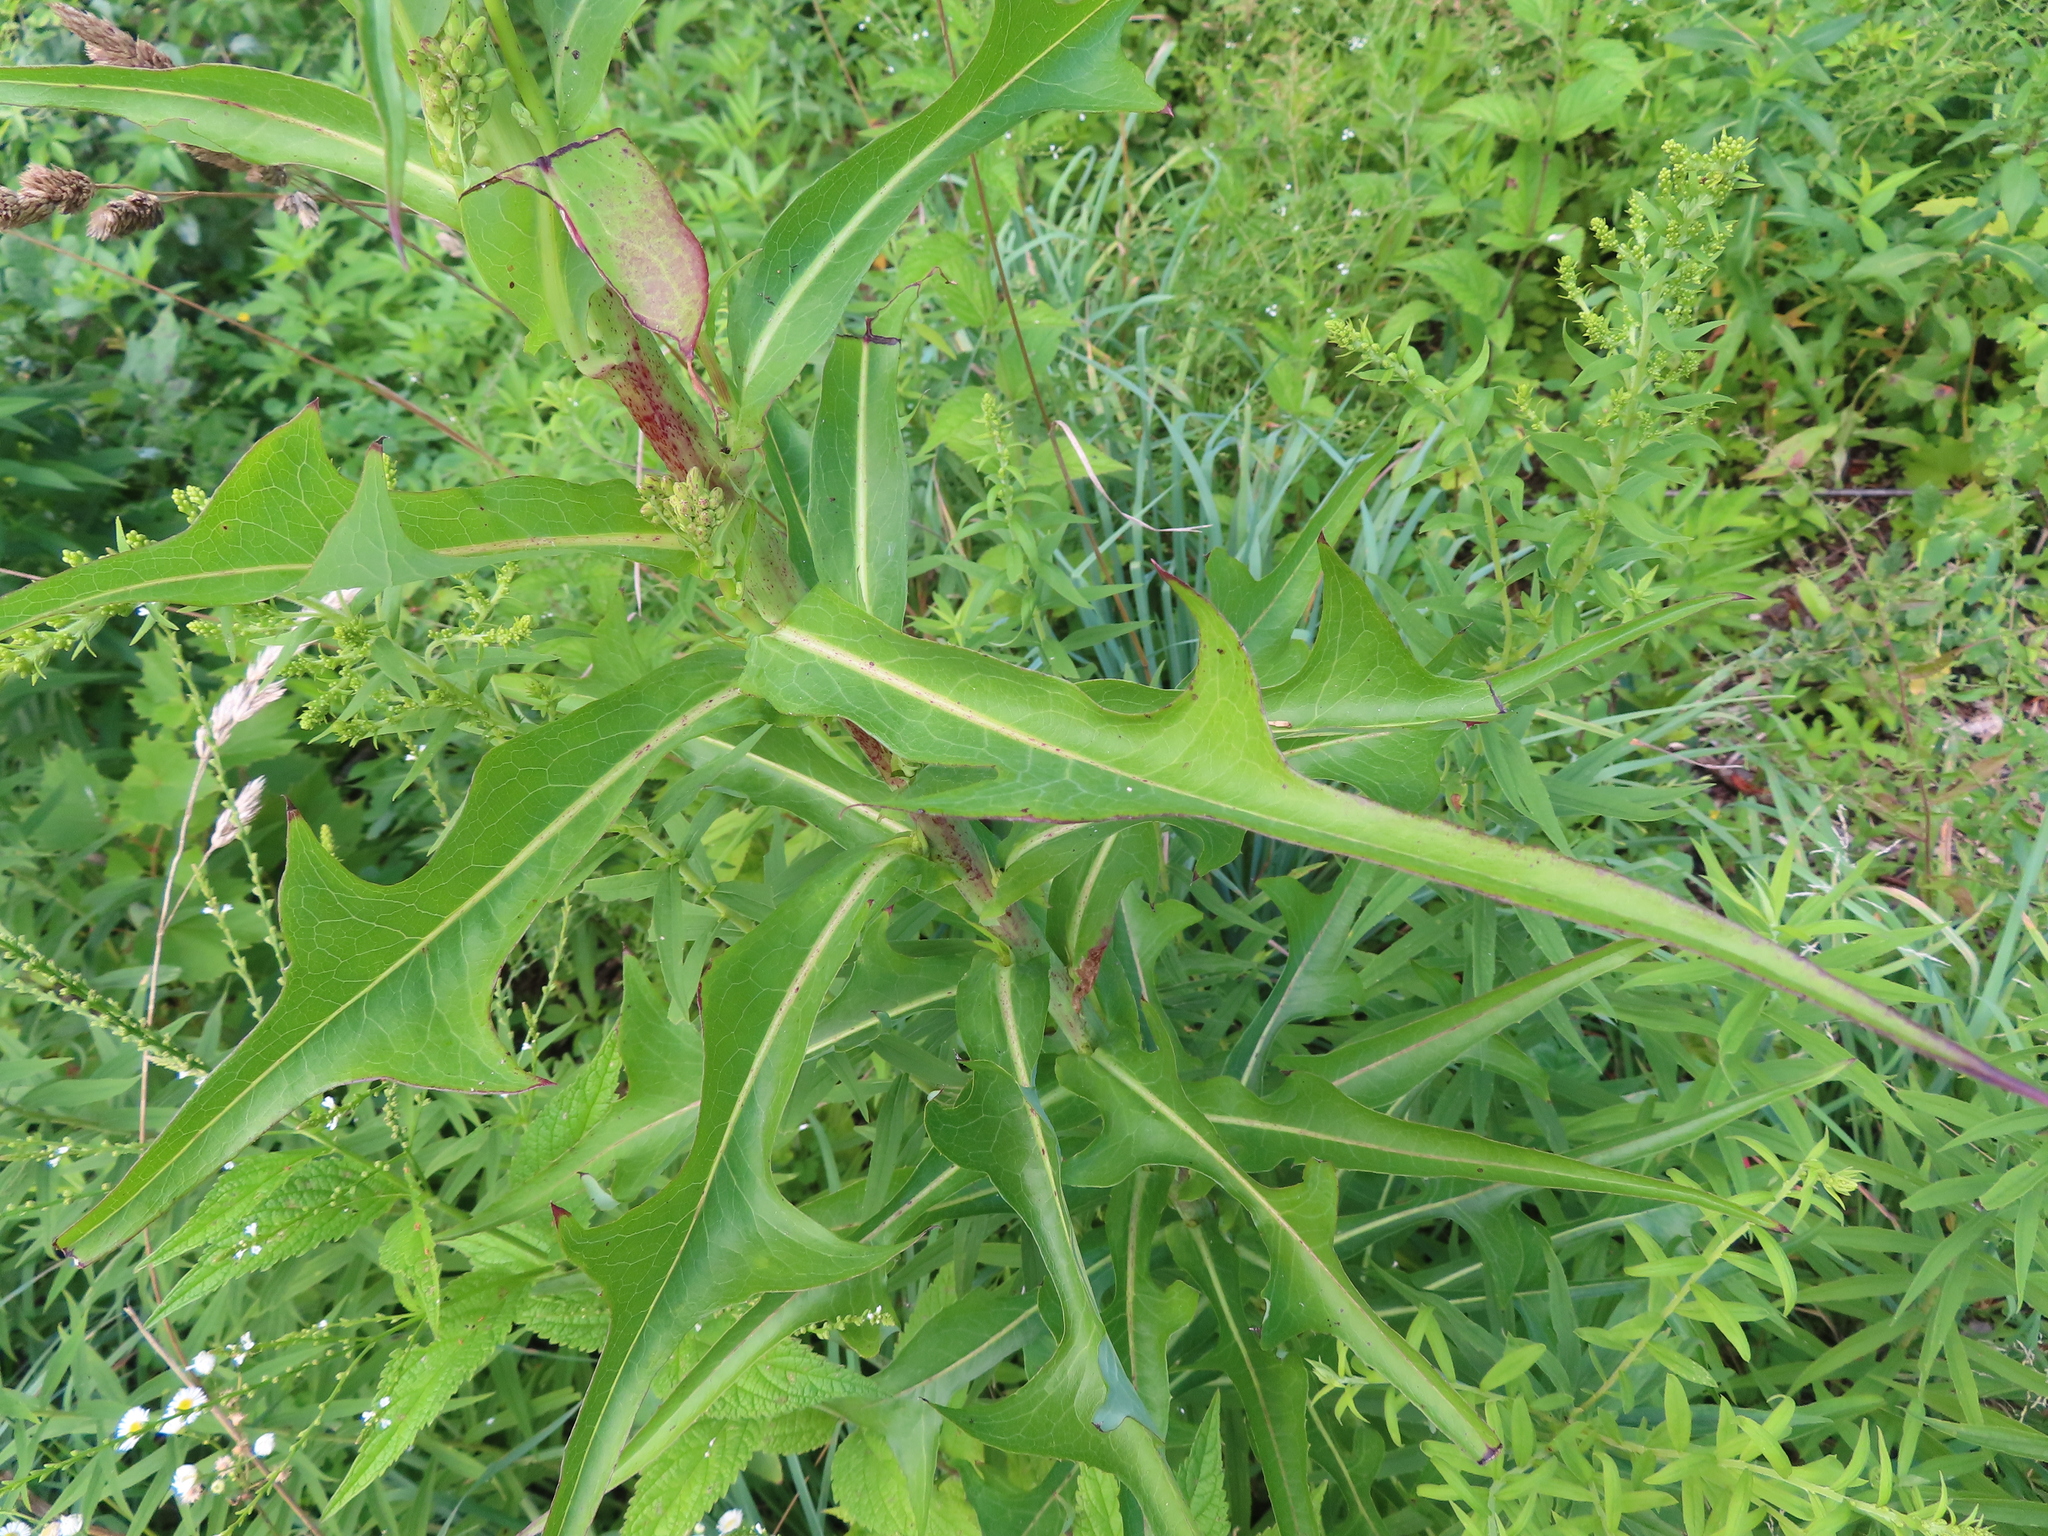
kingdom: Plantae
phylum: Tracheophyta
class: Magnoliopsida
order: Asterales
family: Asteraceae
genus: Lactuca
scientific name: Lactuca canadensis
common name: Canada lettuce
